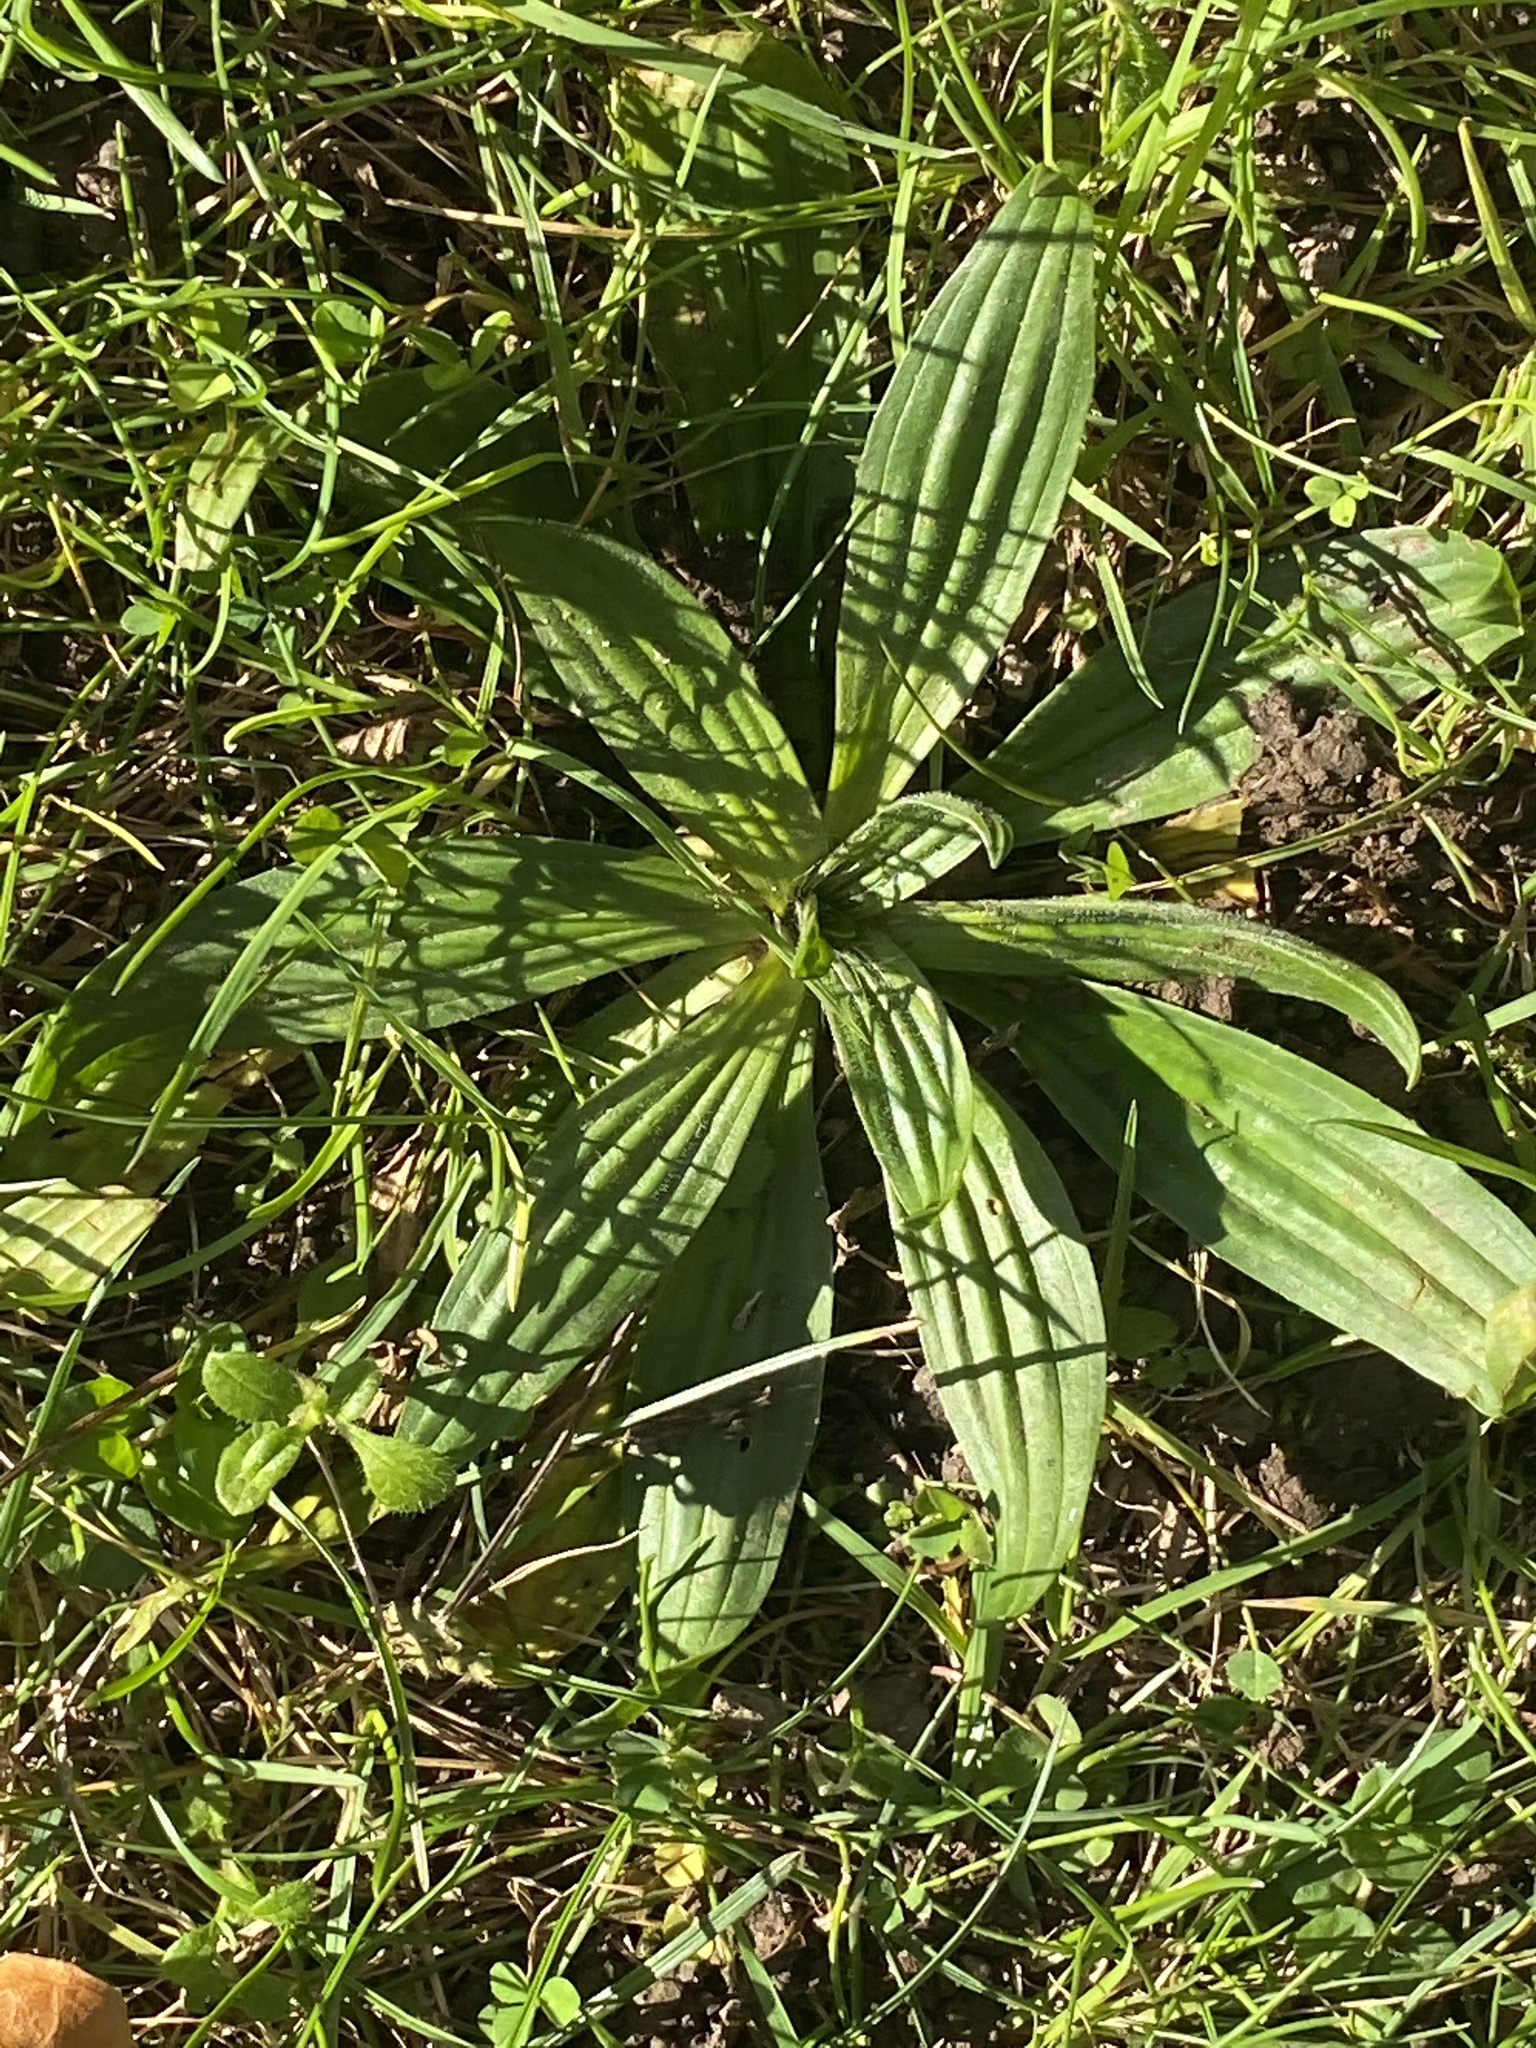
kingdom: Plantae
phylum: Tracheophyta
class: Magnoliopsida
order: Lamiales
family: Plantaginaceae
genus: Plantago
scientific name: Plantago lanceolata
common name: Ribwort plantain
